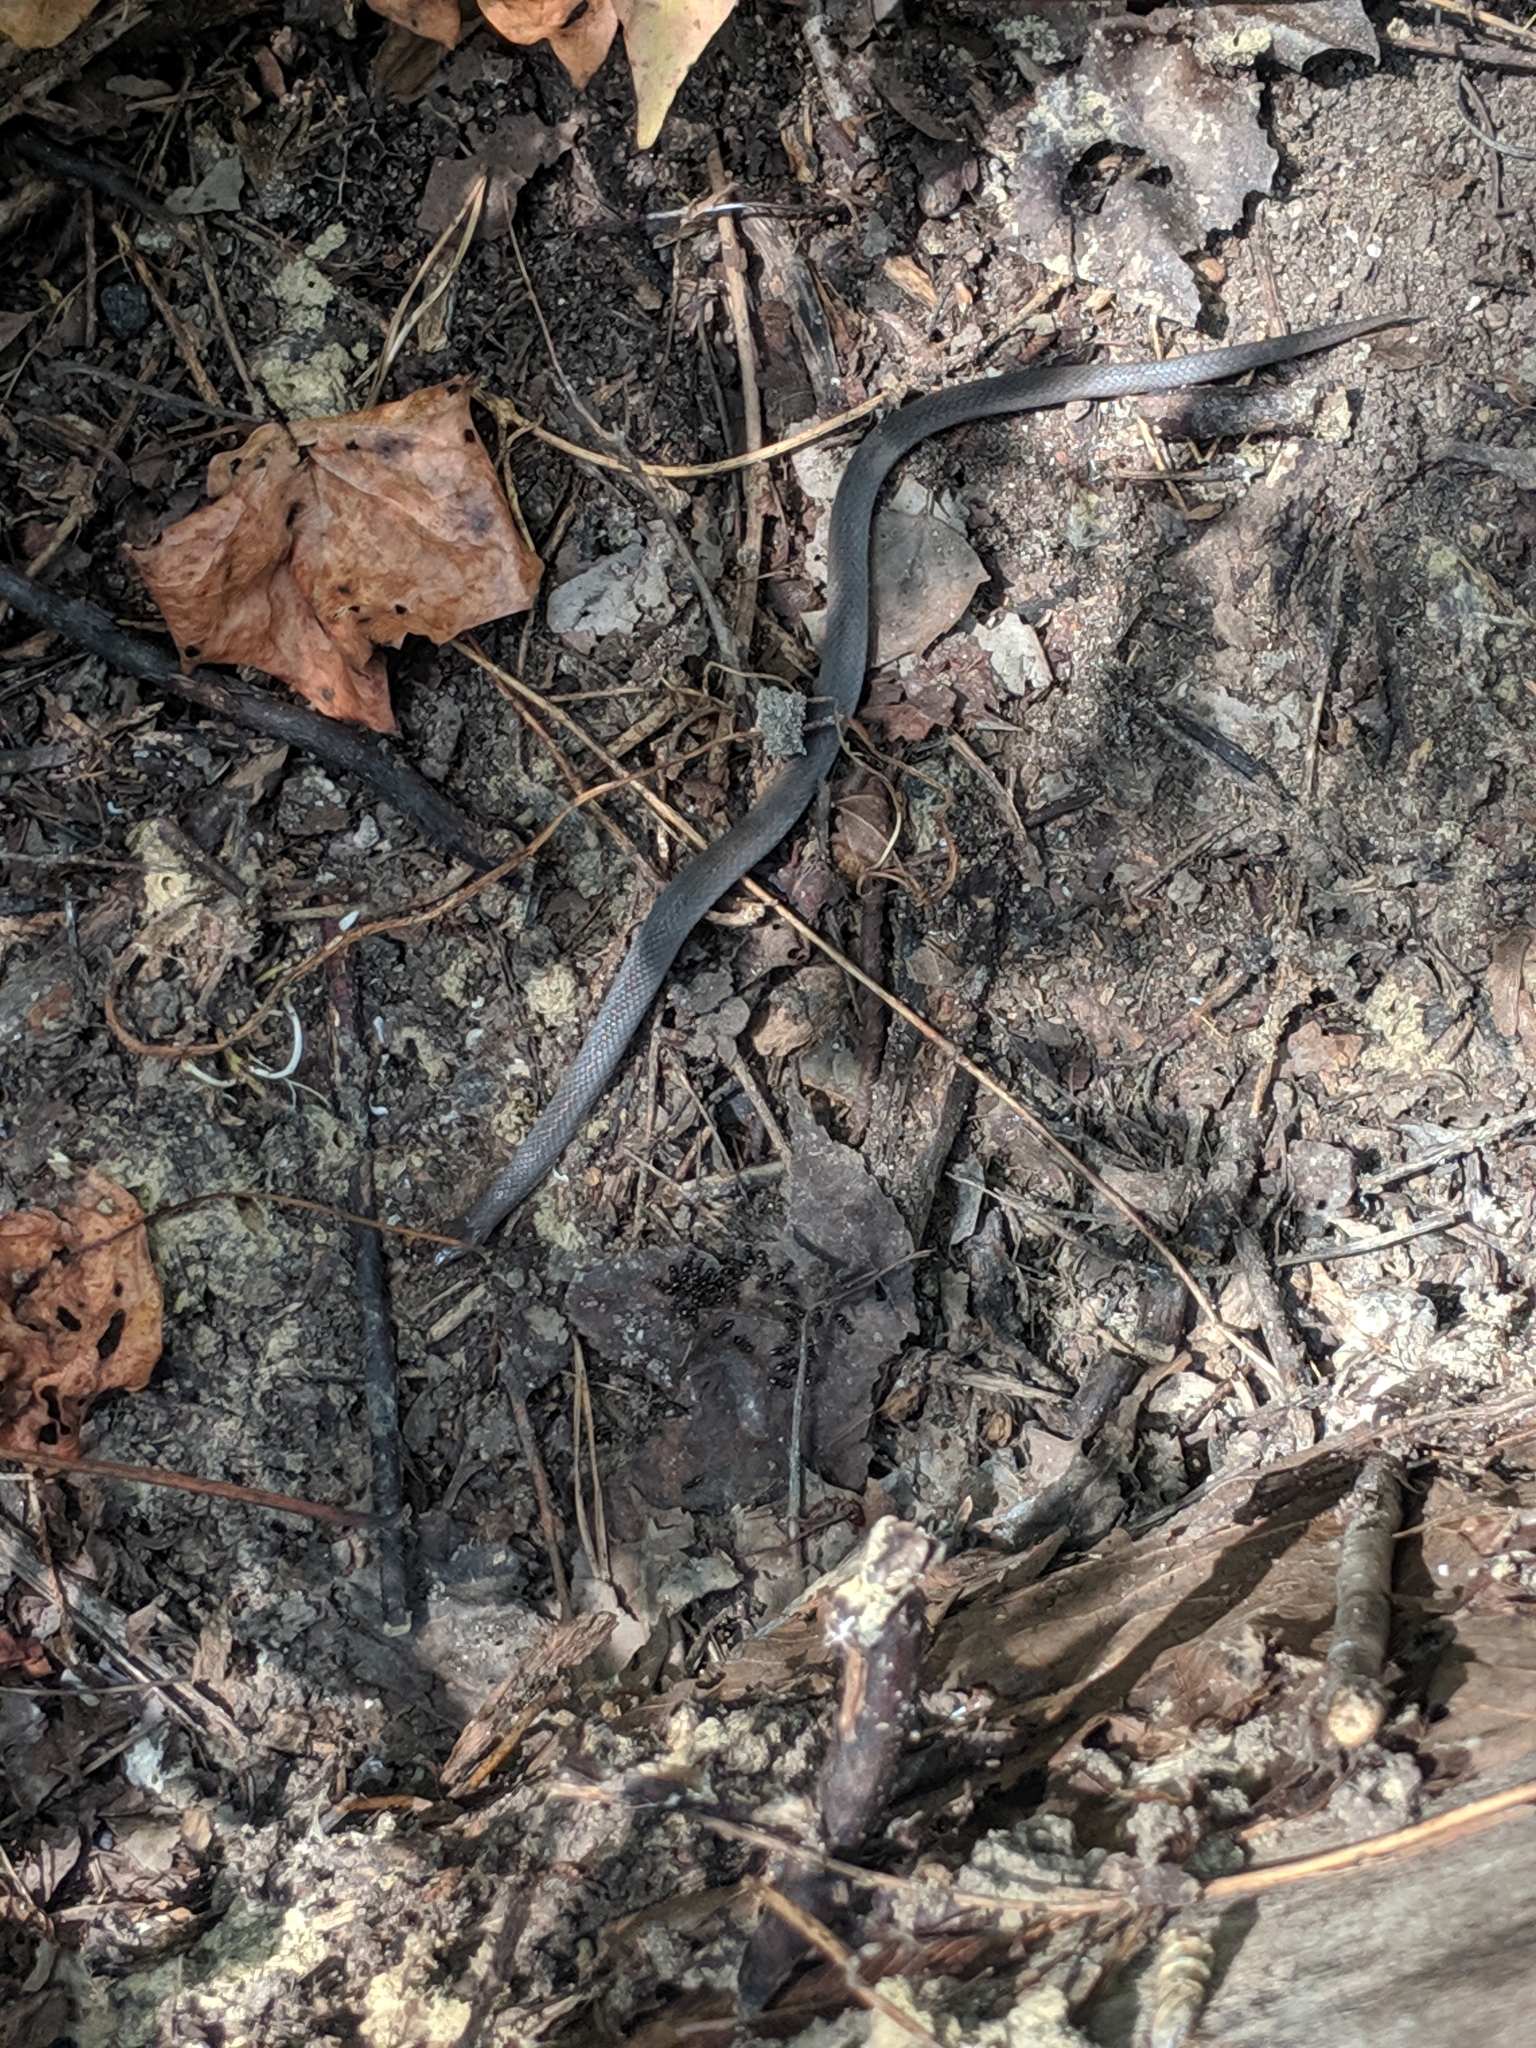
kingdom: Animalia
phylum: Chordata
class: Squamata
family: Colubridae
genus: Virginia
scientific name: Virginia valeriae
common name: Smooth earth snake
